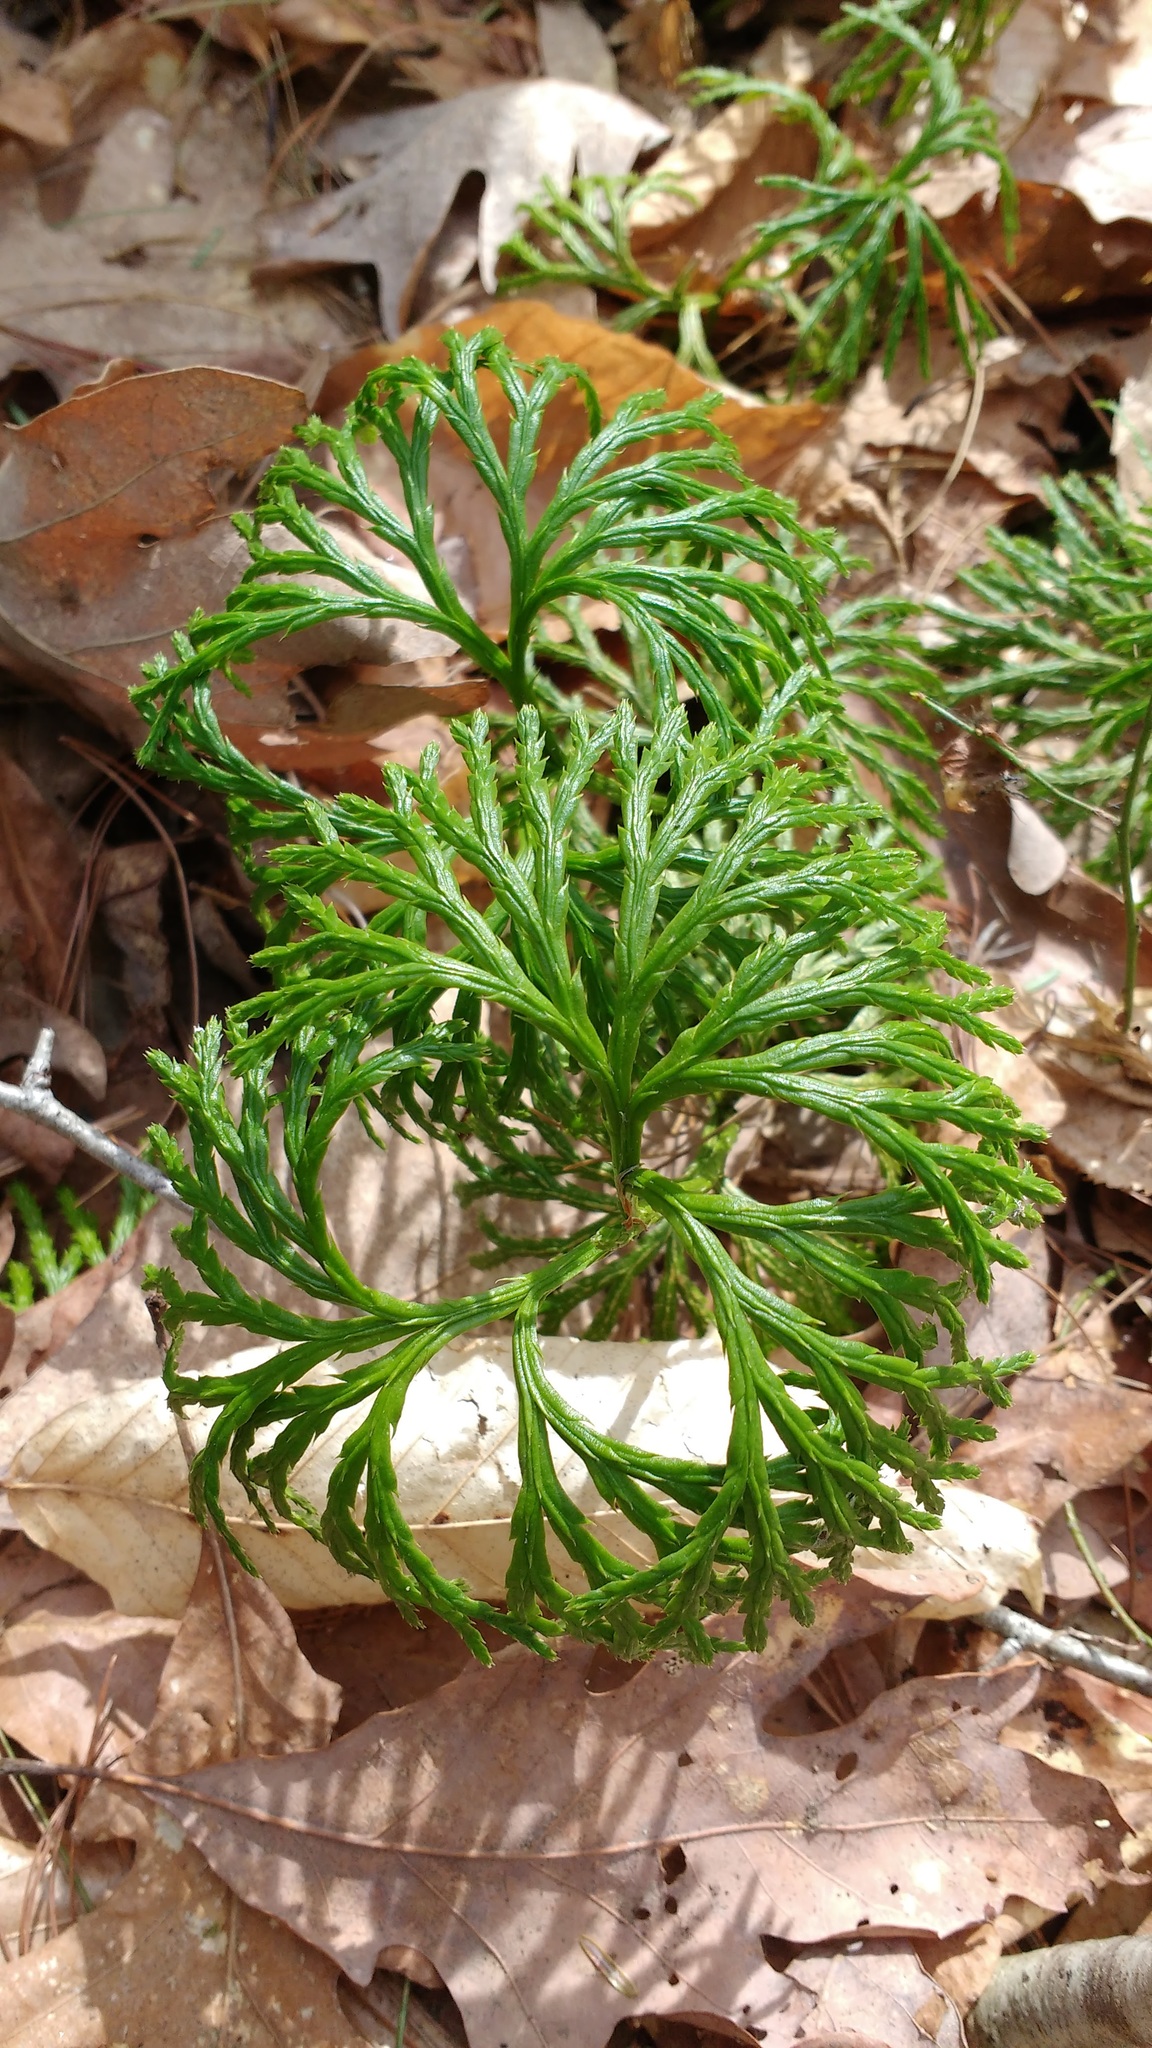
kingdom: Plantae
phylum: Tracheophyta
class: Lycopodiopsida
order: Lycopodiales
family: Lycopodiaceae
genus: Diphasiastrum
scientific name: Diphasiastrum digitatum
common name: Southern running-pine
